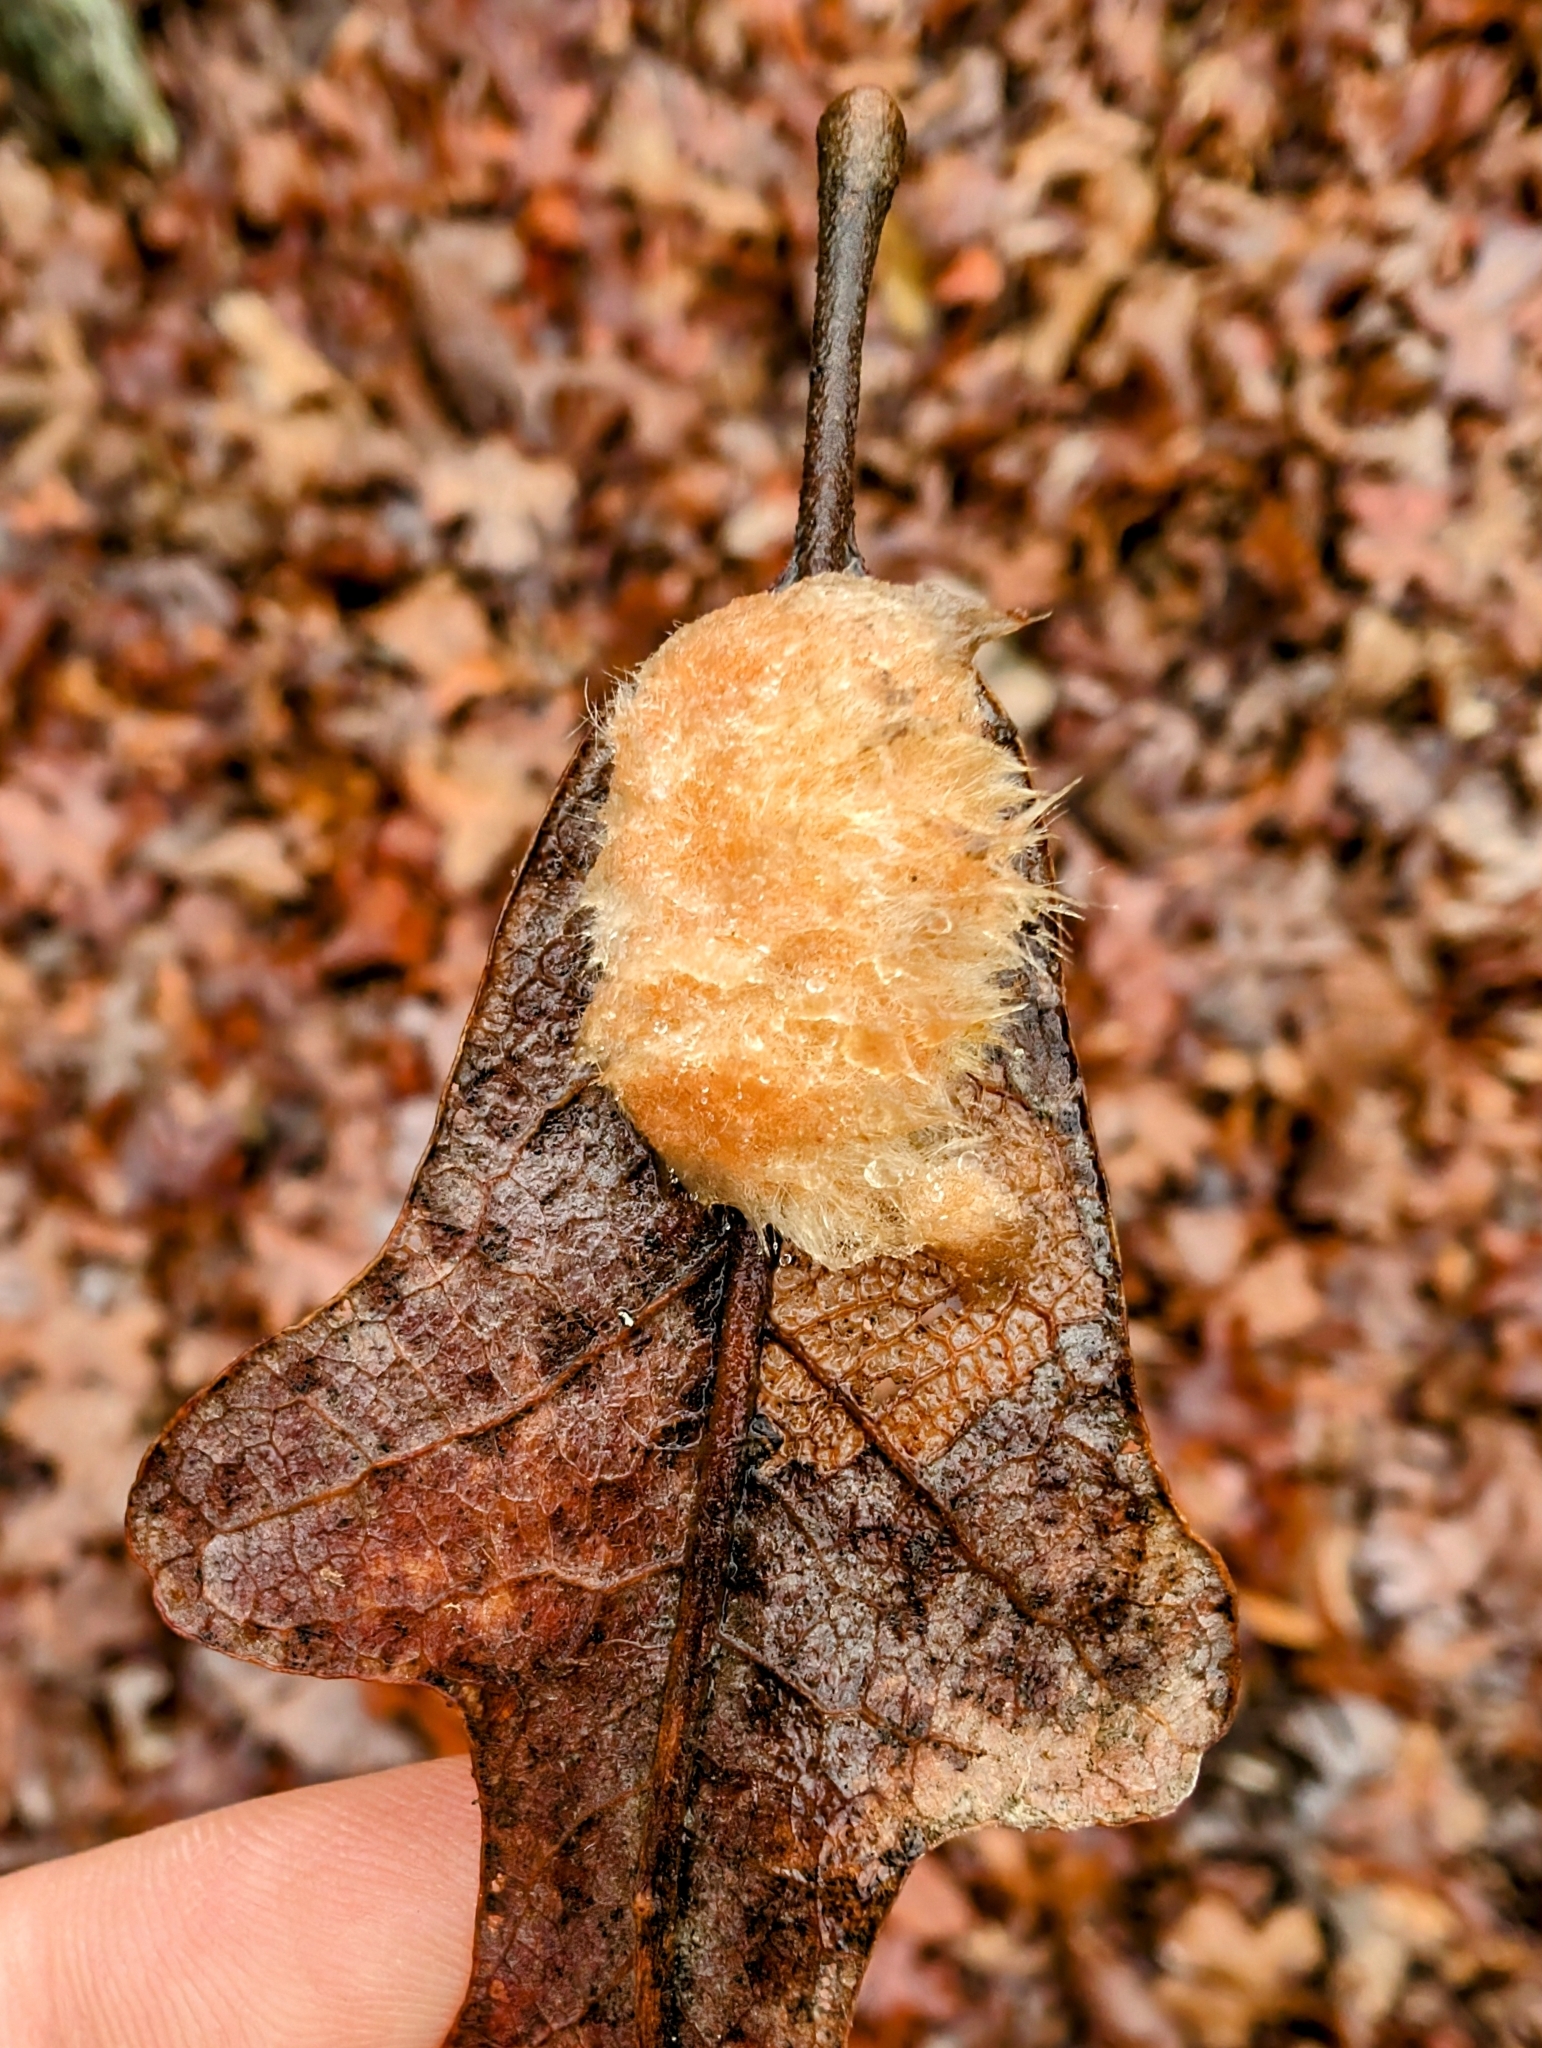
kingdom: Animalia
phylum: Arthropoda
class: Insecta
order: Hymenoptera
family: Cynipidae
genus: Andricus
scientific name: Andricus Druon pattoni
